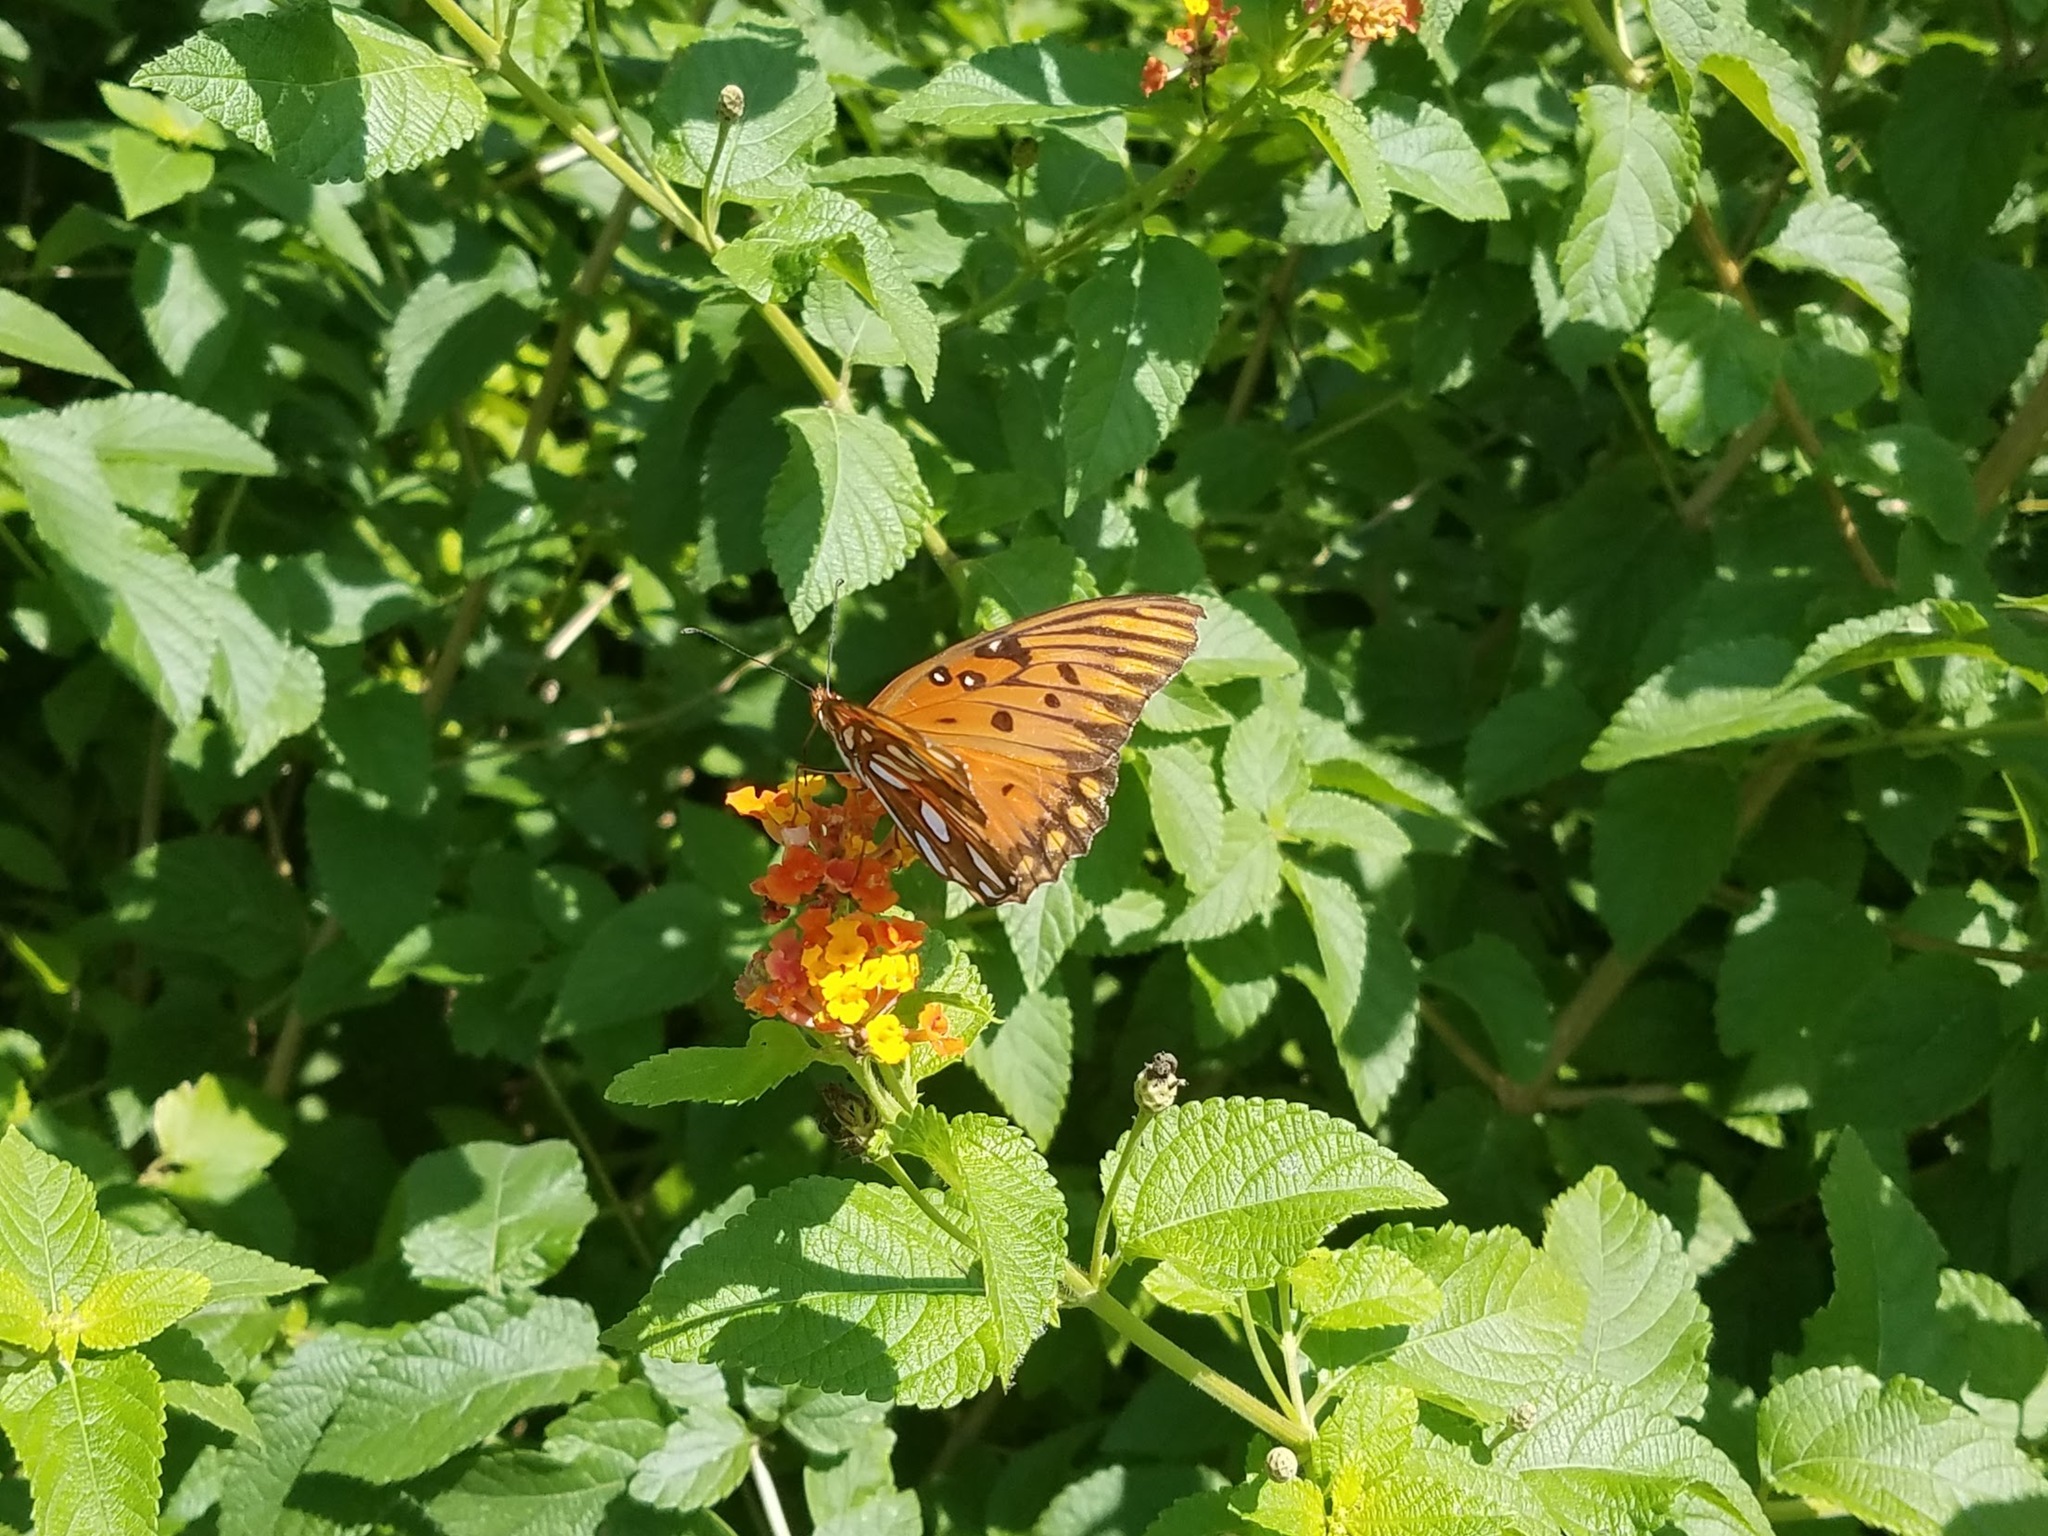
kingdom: Animalia
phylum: Arthropoda
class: Insecta
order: Lepidoptera
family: Nymphalidae
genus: Dione
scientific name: Dione vanillae
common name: Gulf fritillary
